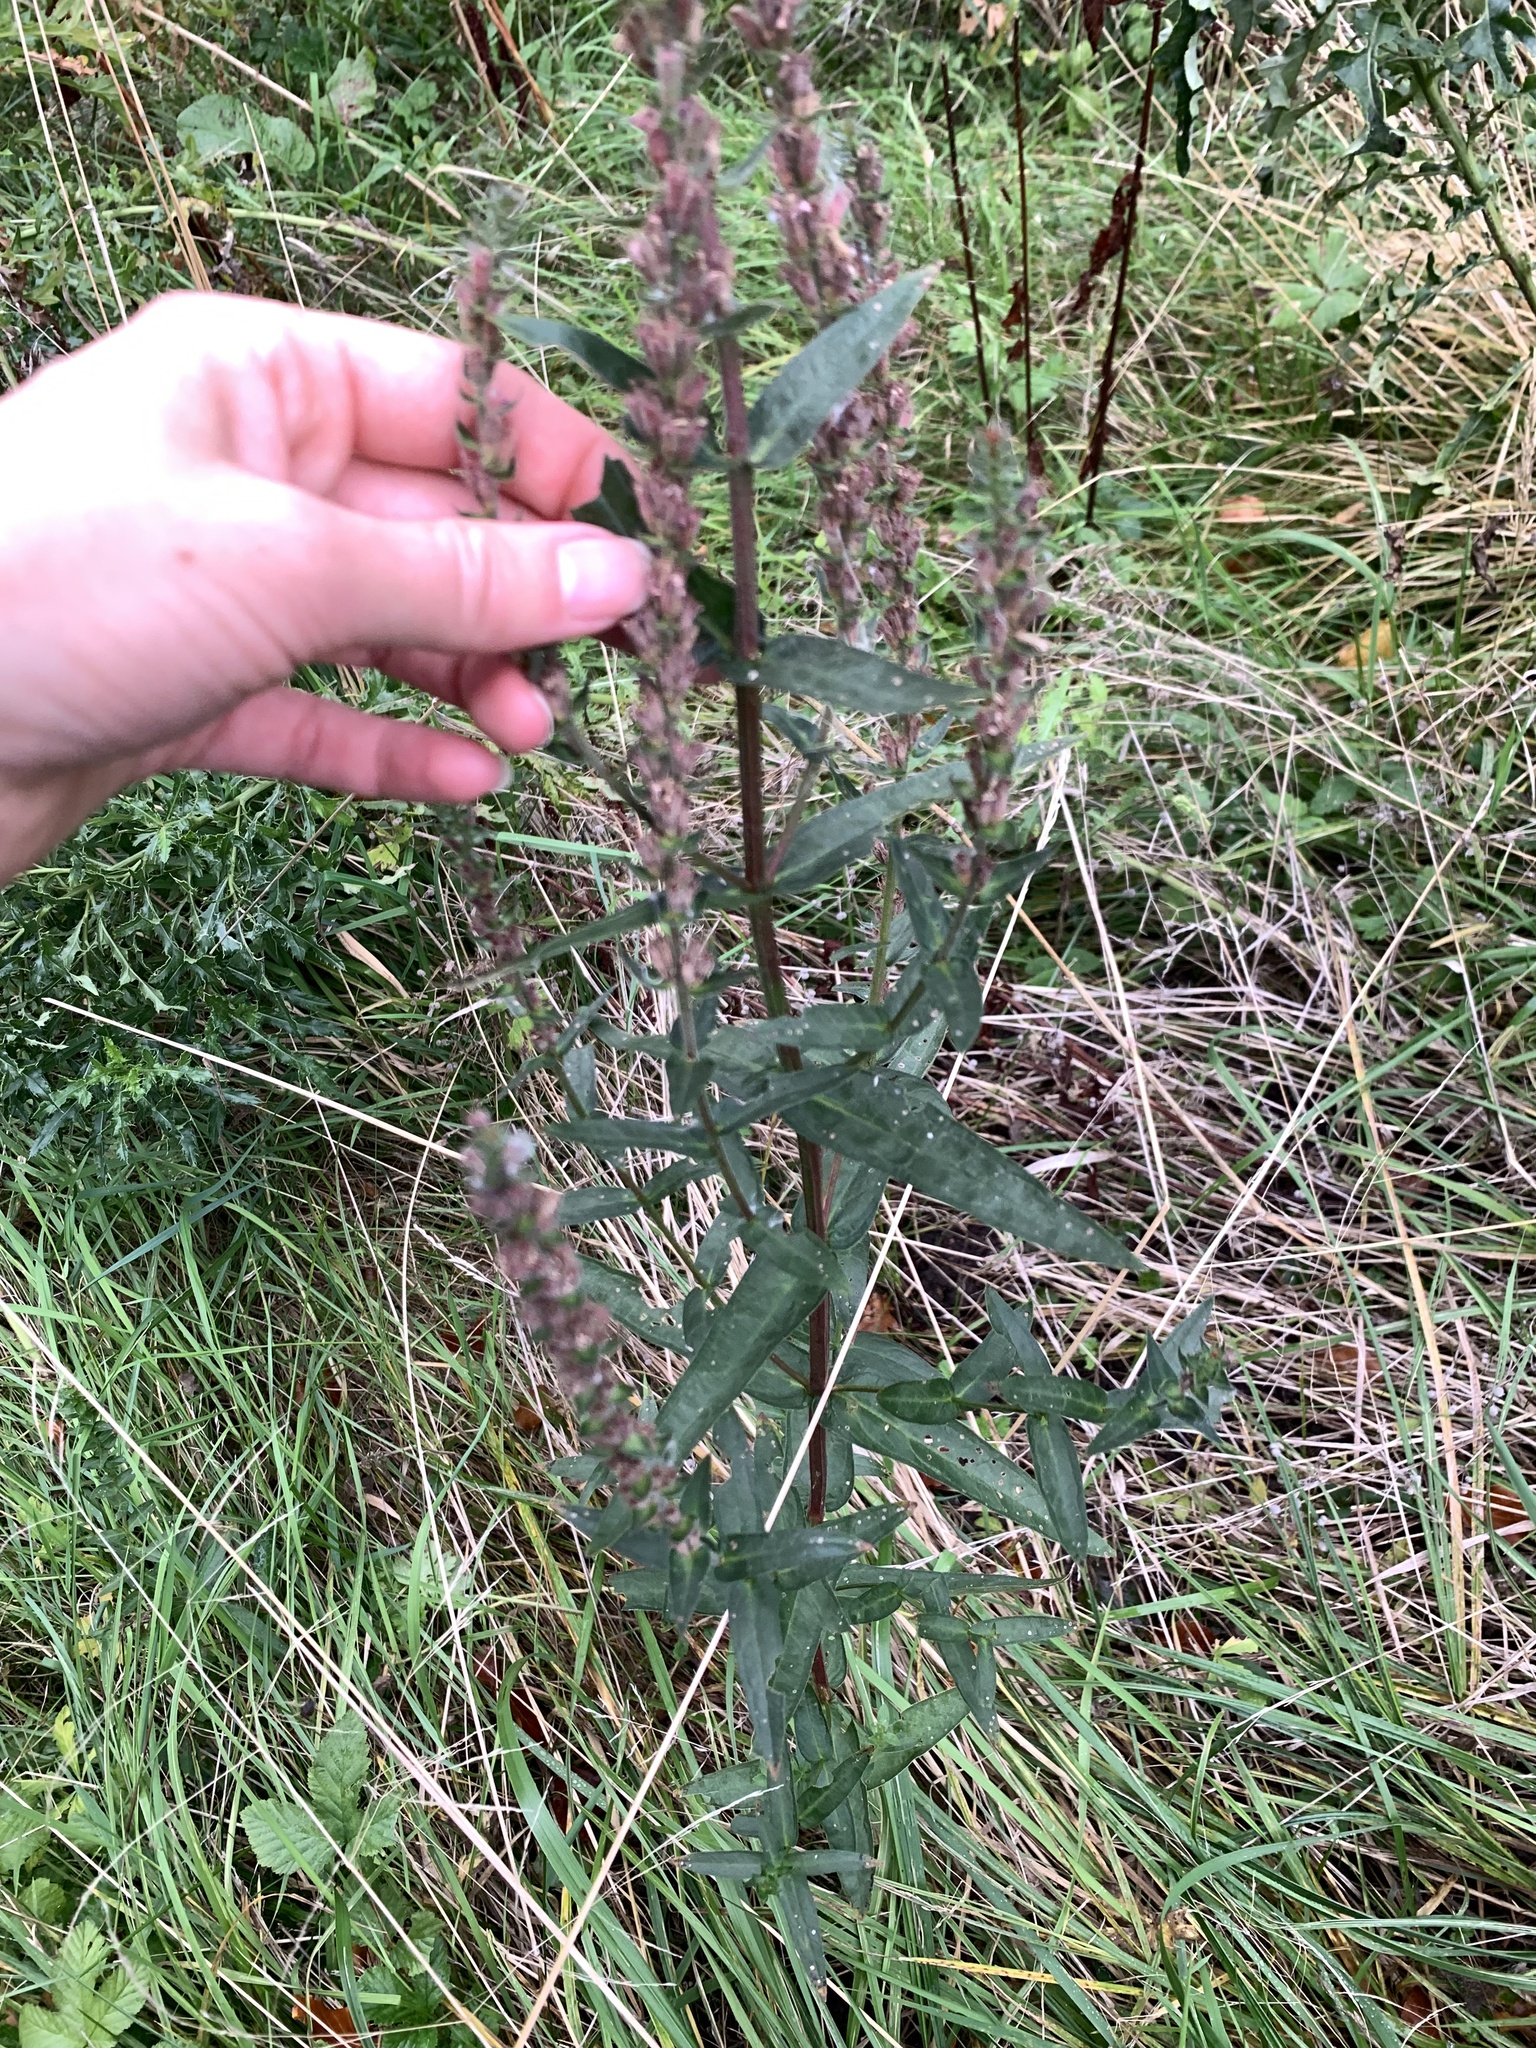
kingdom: Plantae
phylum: Tracheophyta
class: Magnoliopsida
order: Myrtales
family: Lythraceae
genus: Lythrum
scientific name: Lythrum salicaria
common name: Purple loosestrife
